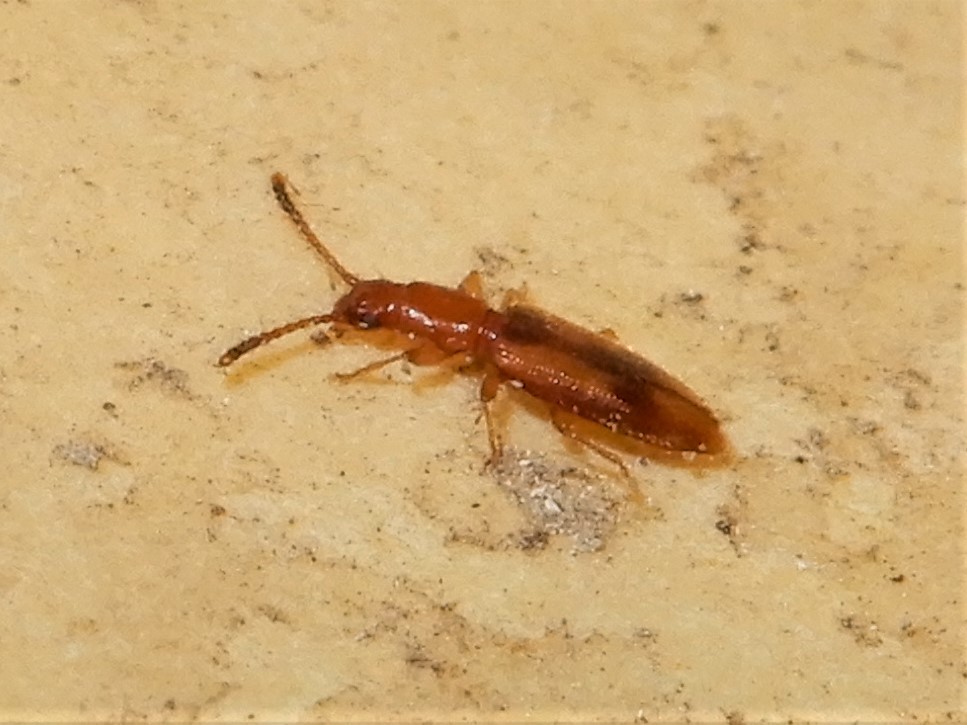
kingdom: Animalia
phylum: Arthropoda
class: Insecta
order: Coleoptera
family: Silvanidae
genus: Cryptamorpha
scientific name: Cryptamorpha desjardinsi
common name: Cryptamorpha
